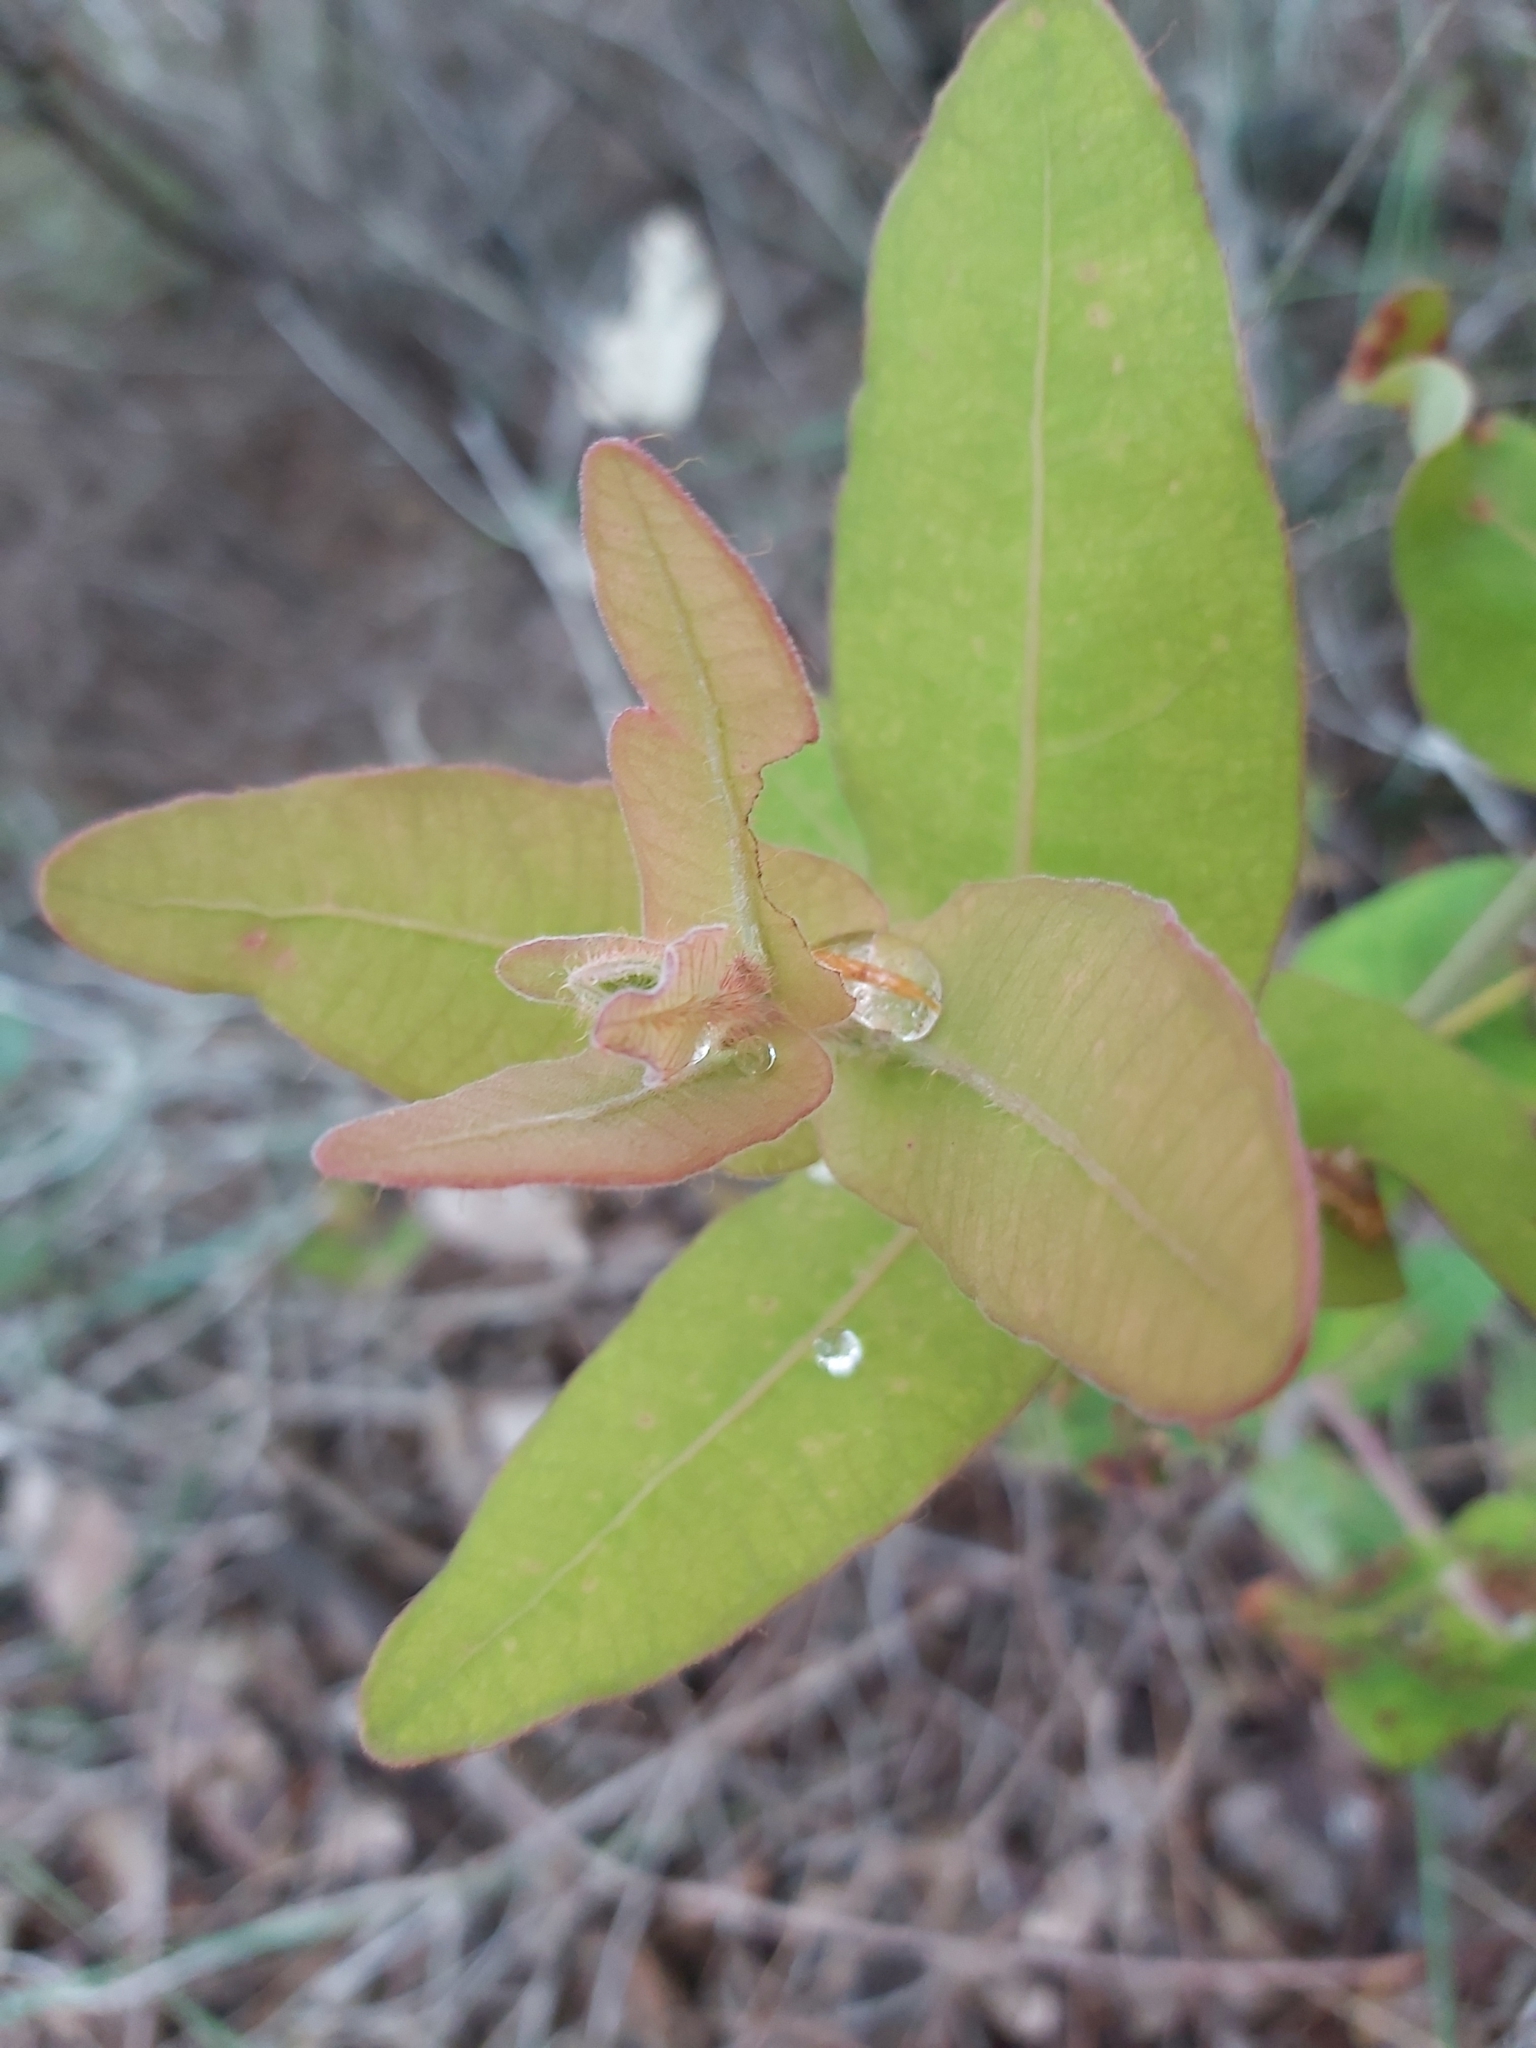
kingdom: Plantae
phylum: Tracheophyta
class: Magnoliopsida
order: Myrtales
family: Myrtaceae
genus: Angophora
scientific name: Angophora hispida
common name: Dwarf-apple
